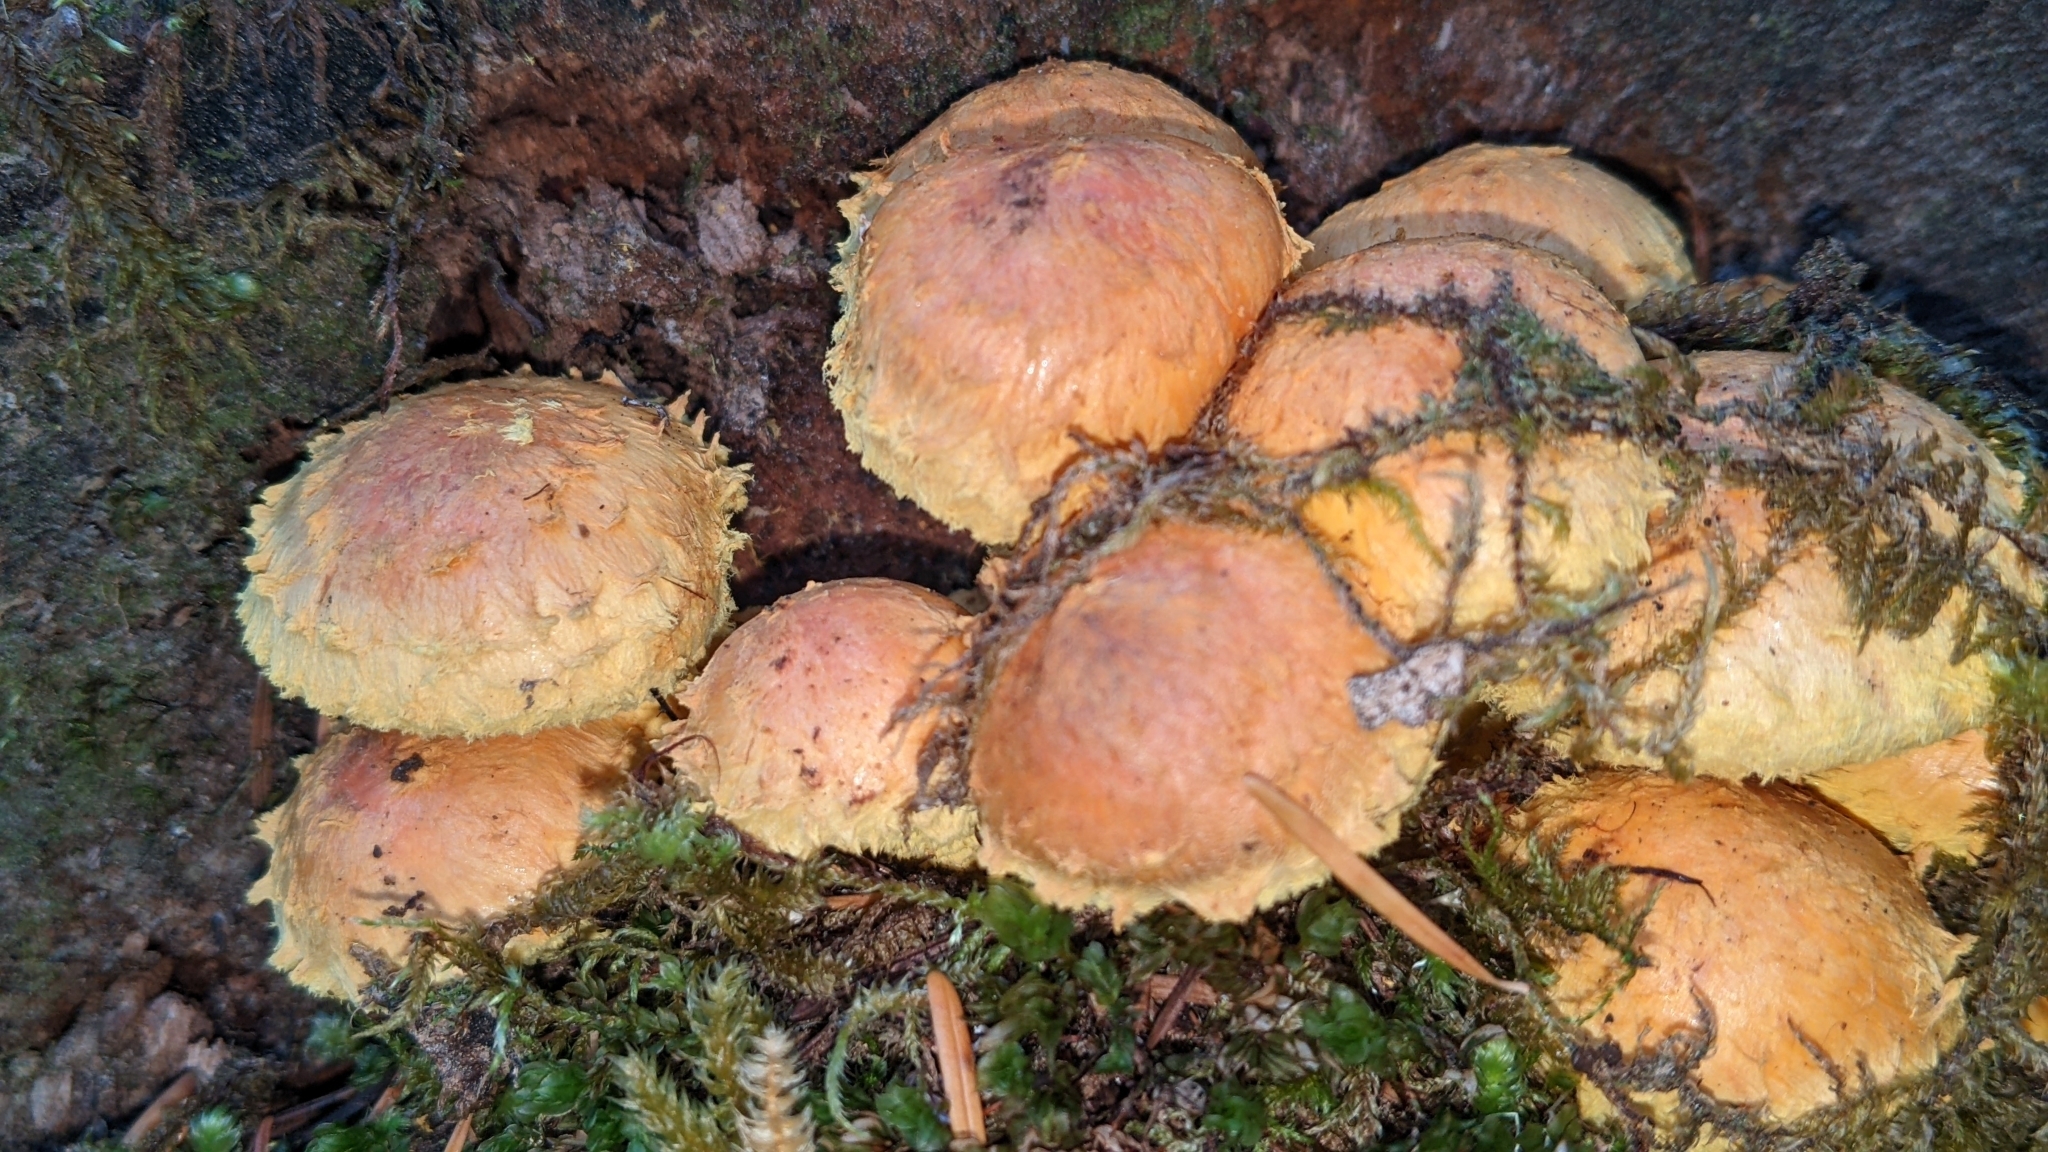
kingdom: Fungi
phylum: Basidiomycota
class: Agaricomycetes
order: Agaricales
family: Strophariaceae
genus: Pholiota
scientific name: Pholiota flammans
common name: Flaming scalycap
